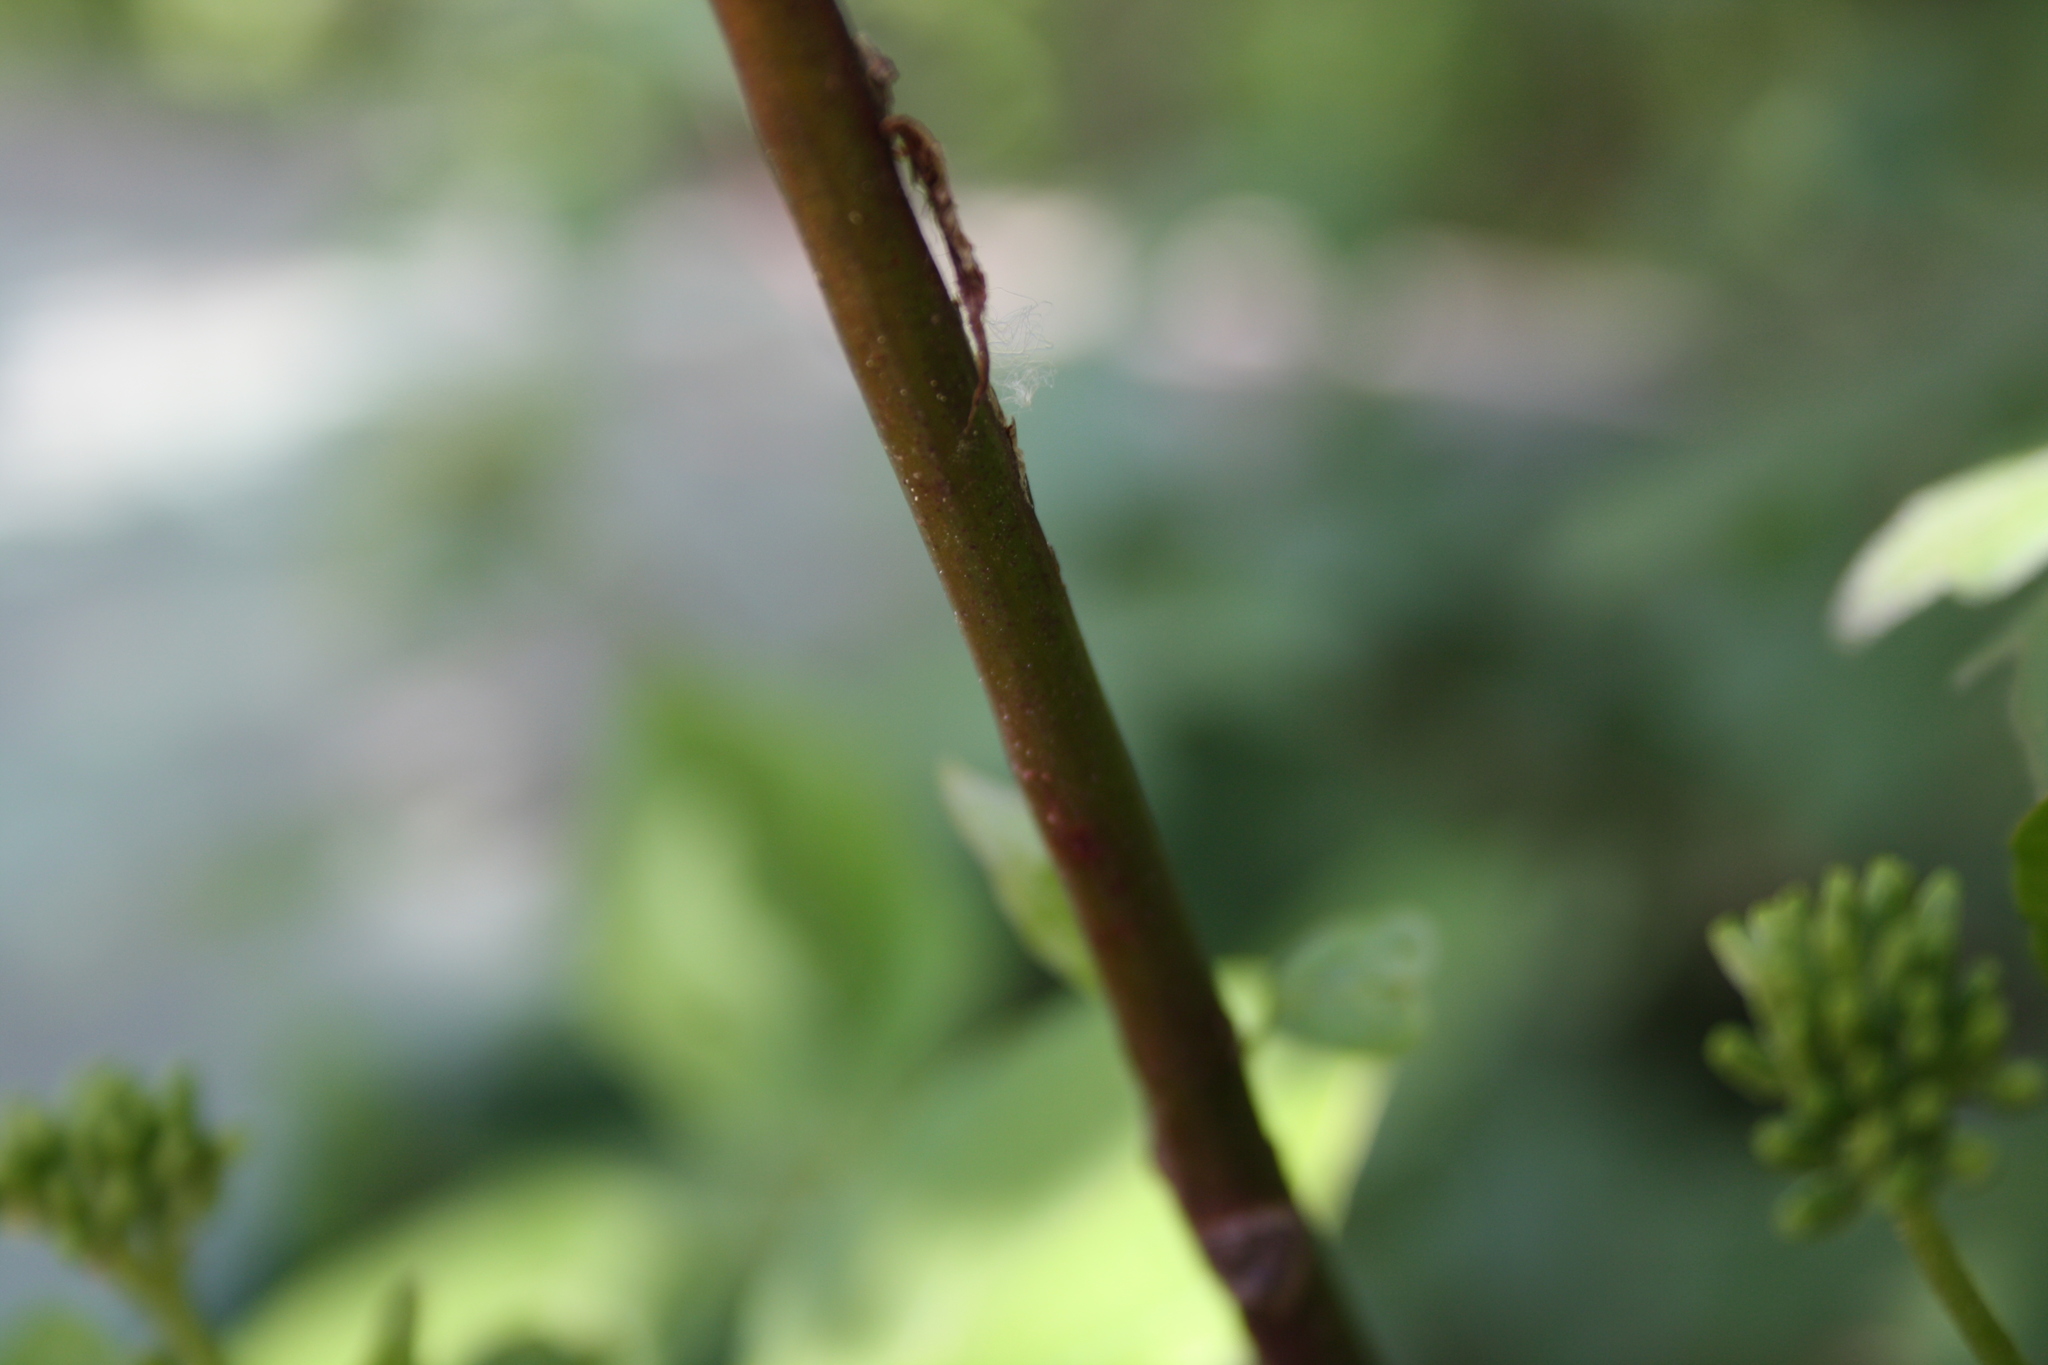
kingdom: Plantae
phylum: Tracheophyta
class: Magnoliopsida
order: Cornales
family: Cornaceae
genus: Cornus
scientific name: Cornus sanguinea
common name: Dogwood
